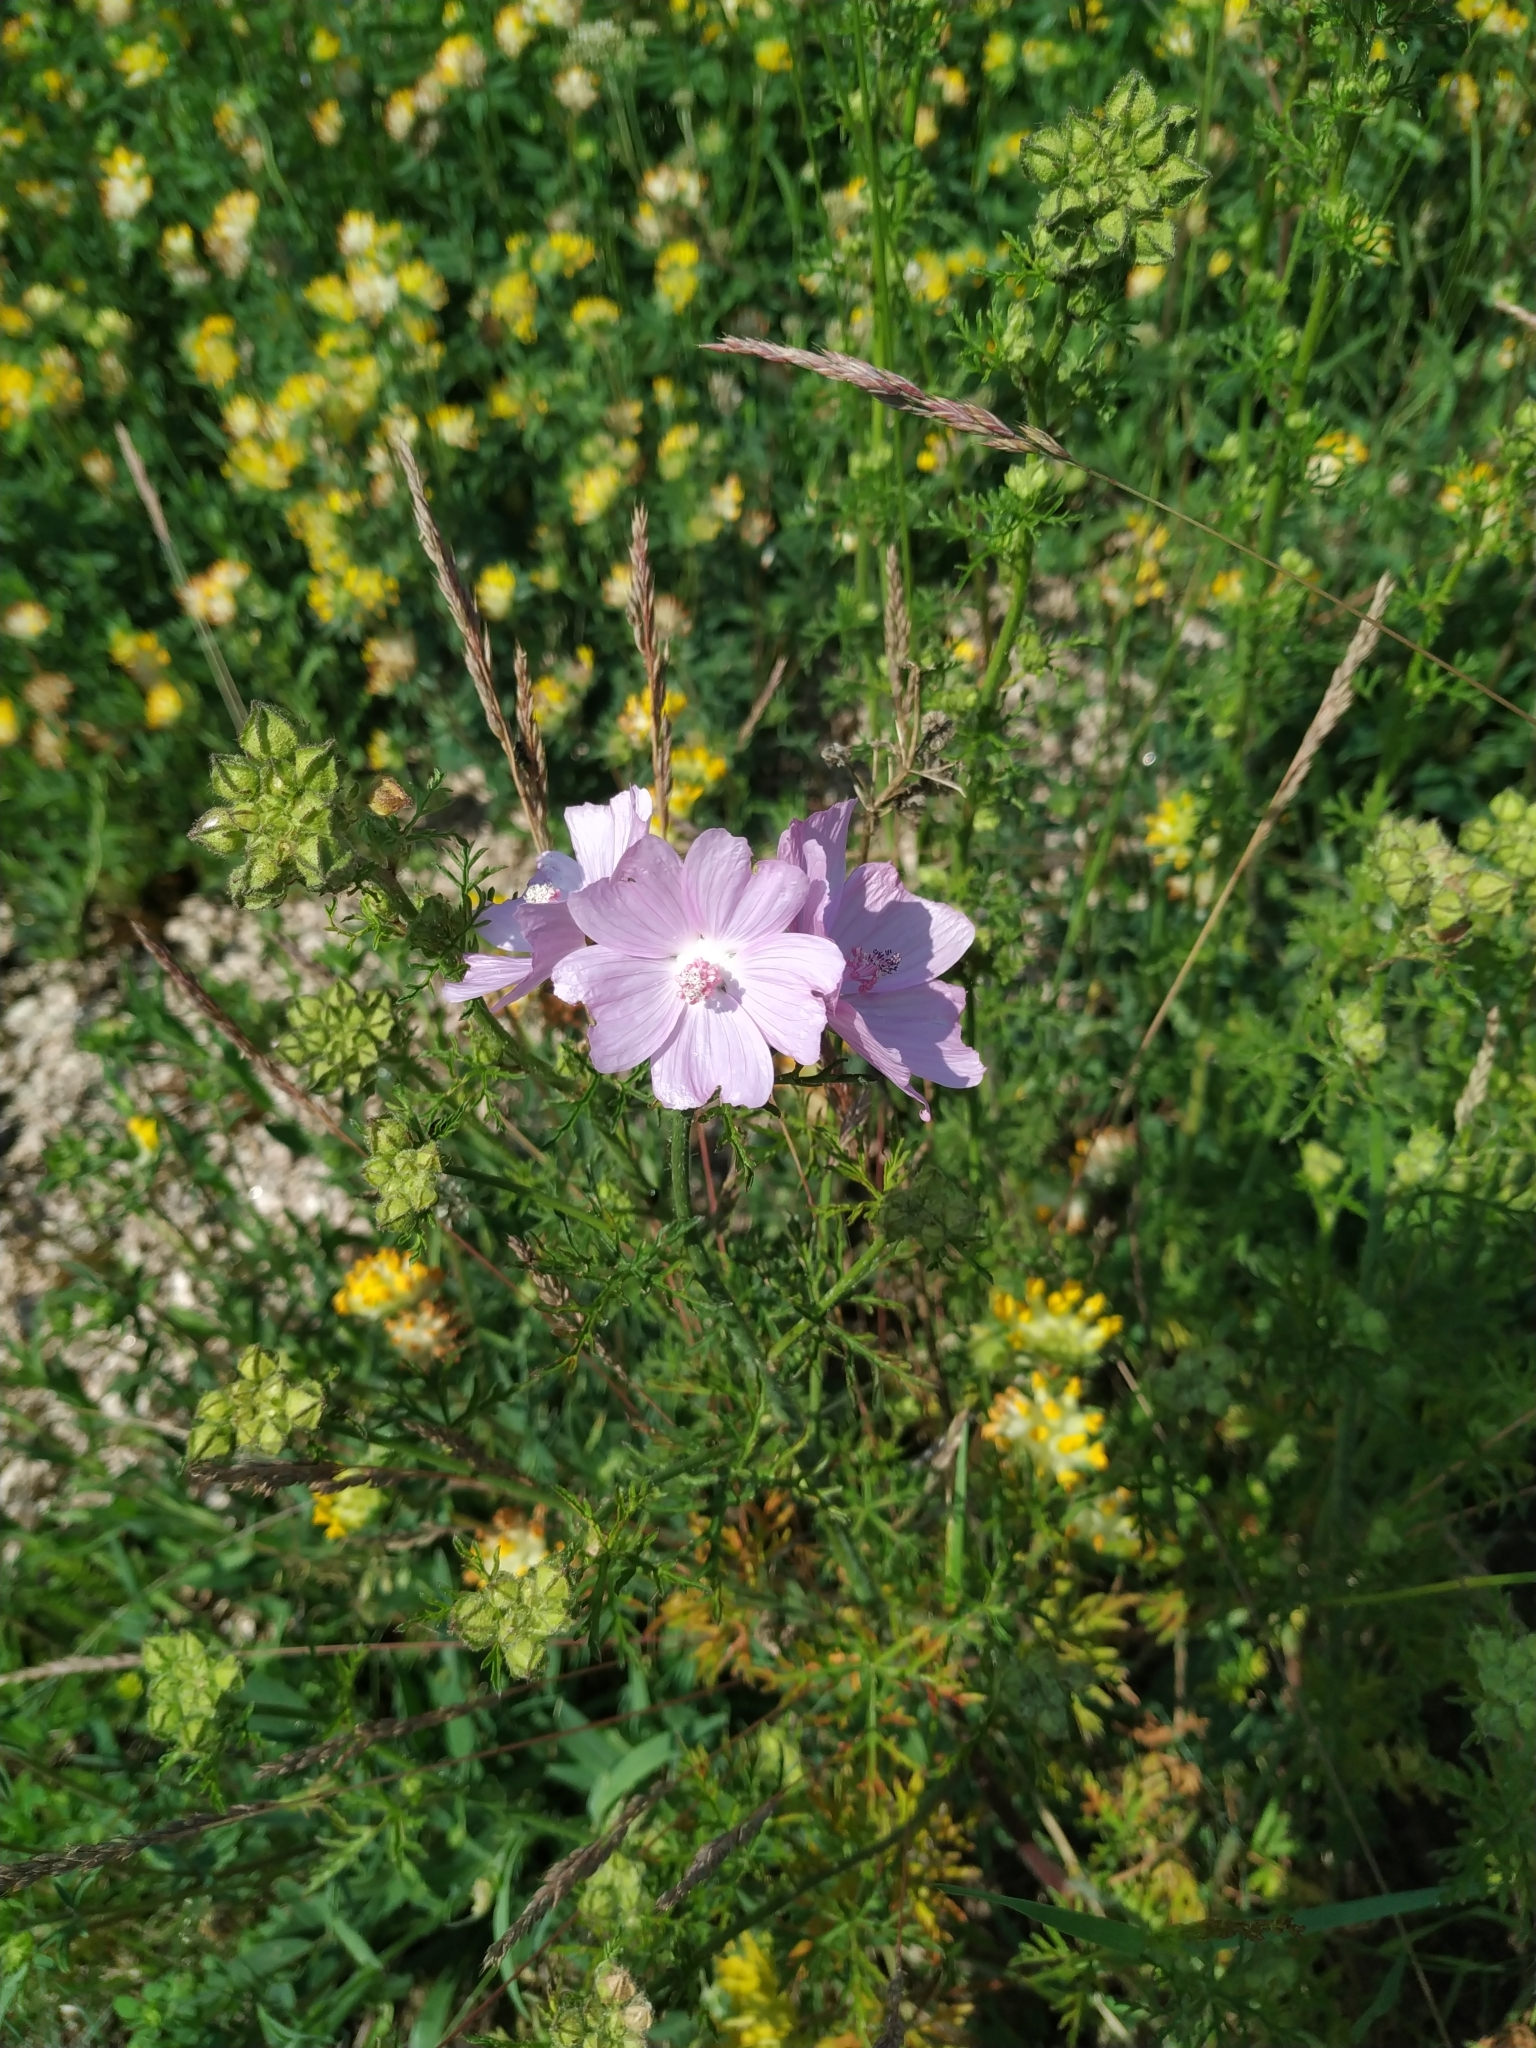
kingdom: Plantae
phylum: Tracheophyta
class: Magnoliopsida
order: Malvales
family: Malvaceae
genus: Malva
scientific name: Malva moschata
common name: Musk mallow
